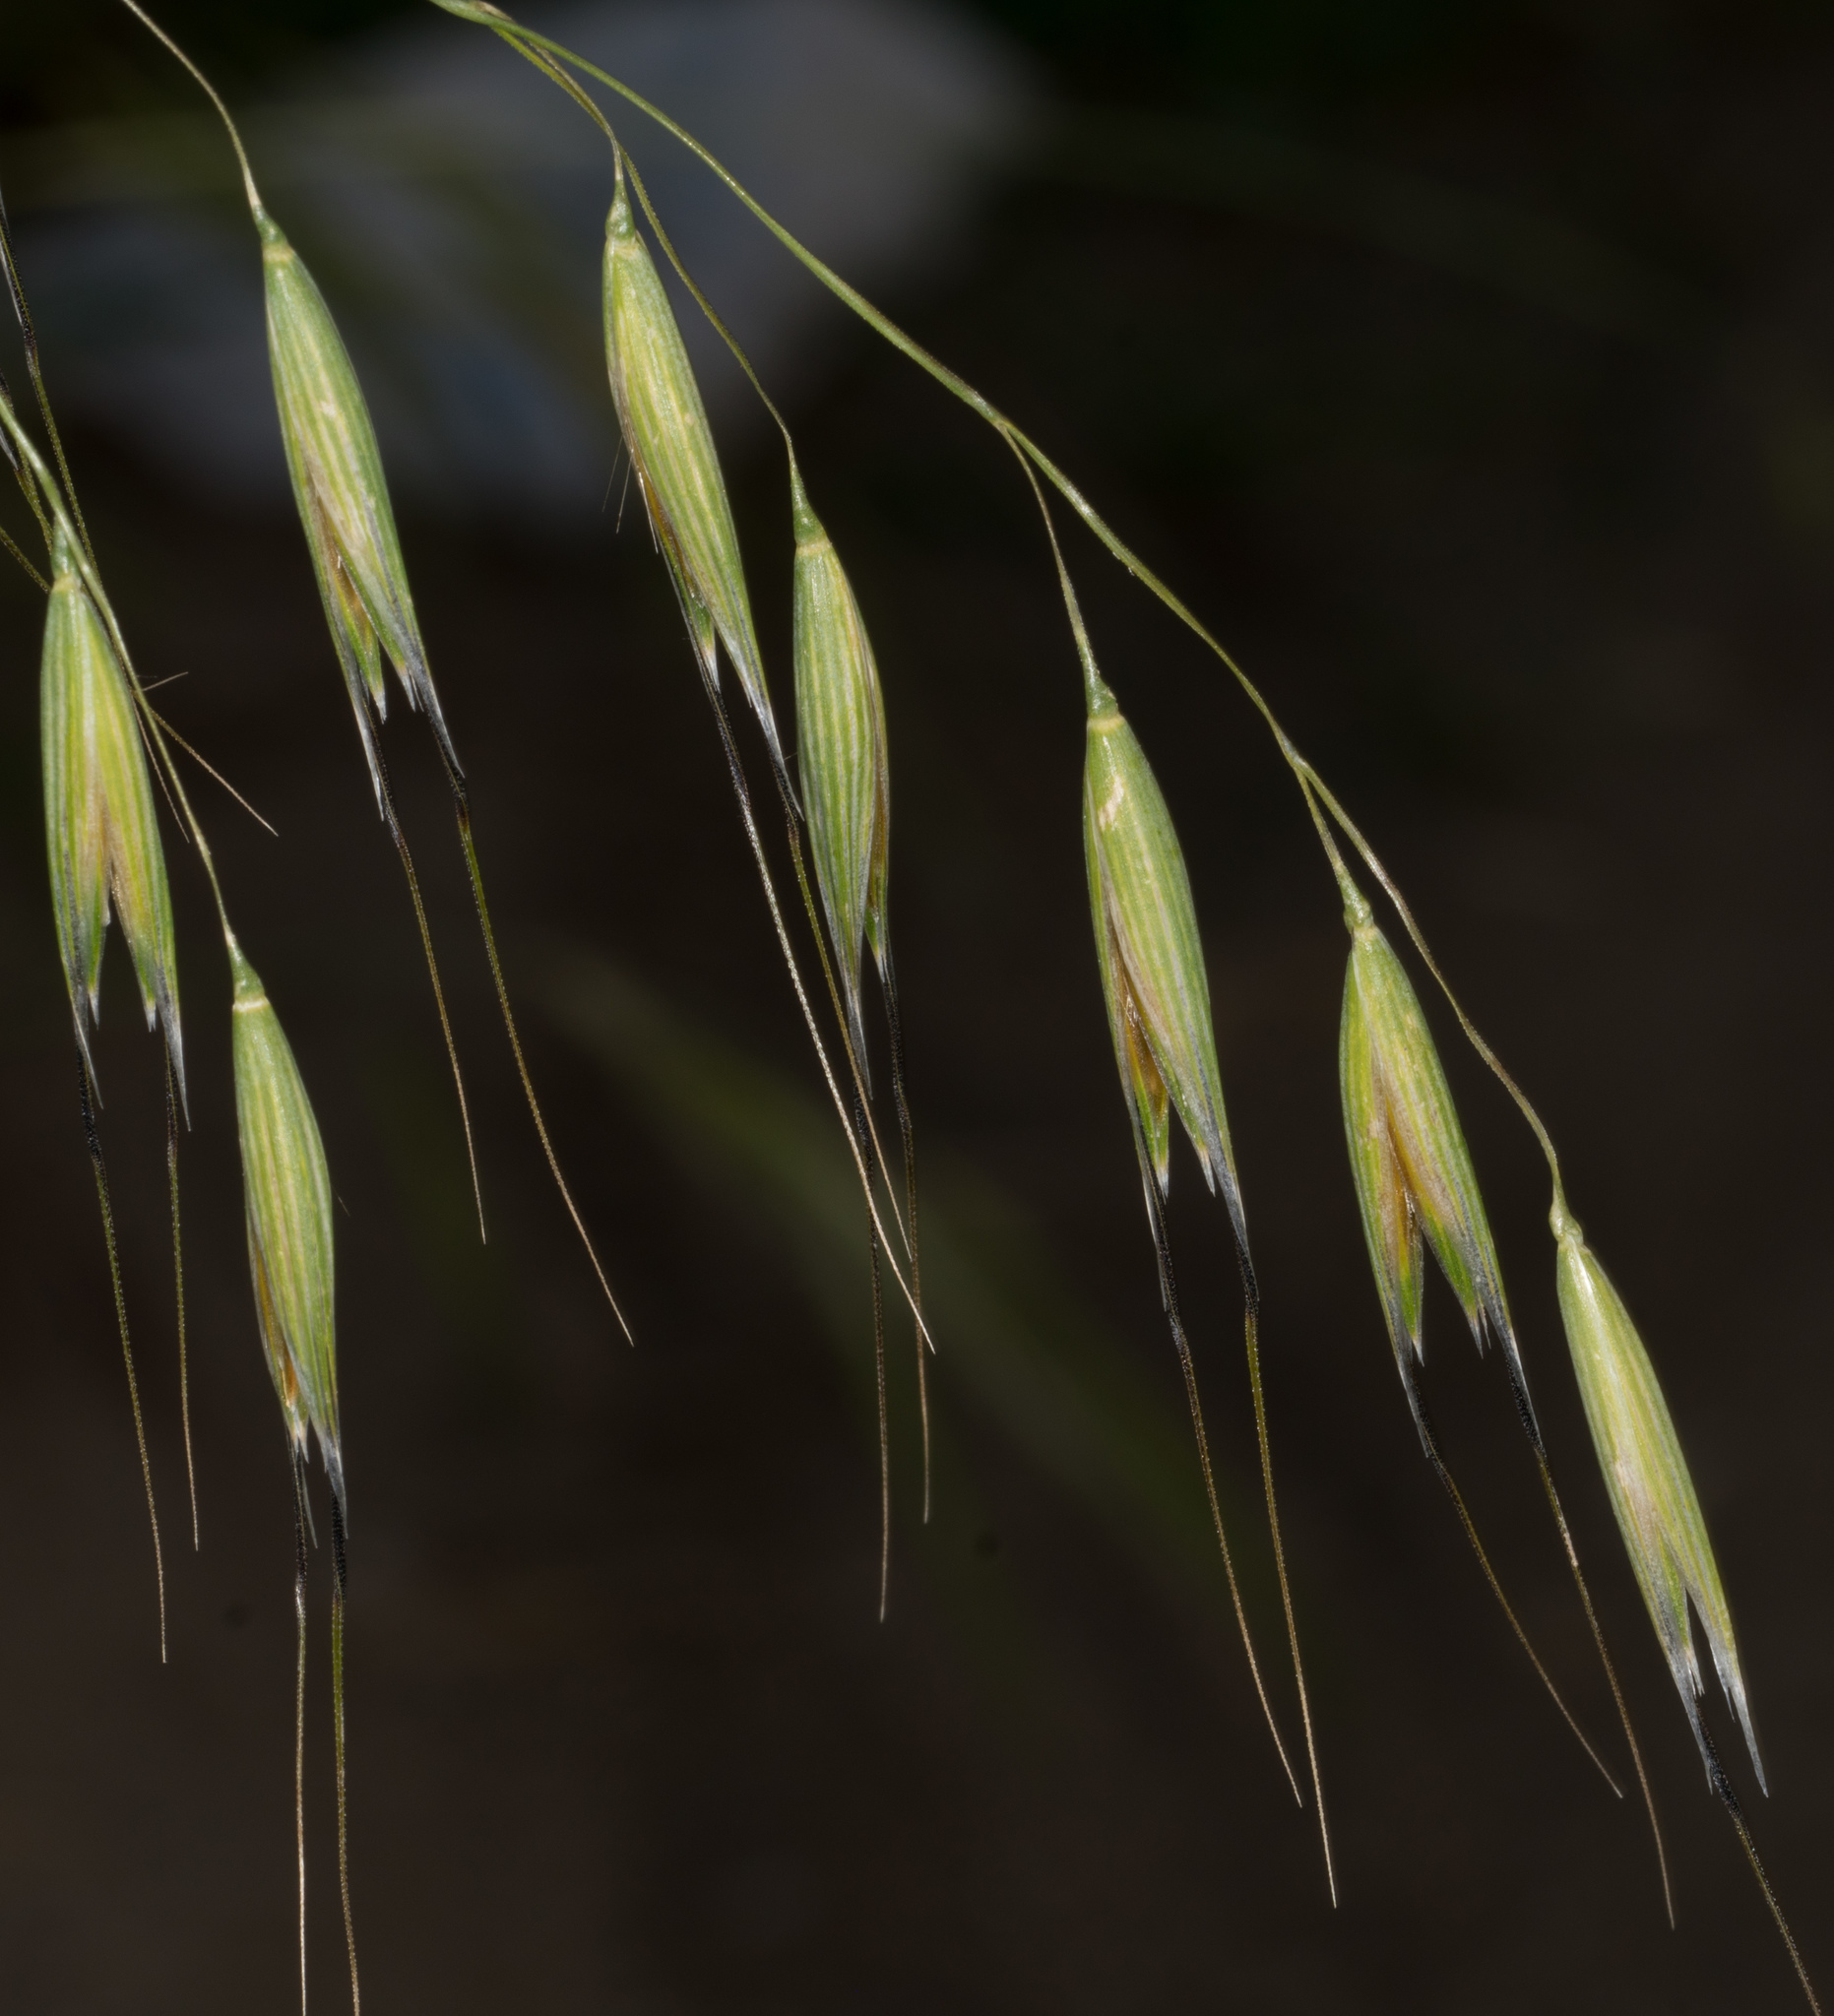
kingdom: Plantae
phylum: Tracheophyta
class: Liliopsida
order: Poales
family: Poaceae
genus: Avena
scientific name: Avena fatua
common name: Wild oat
